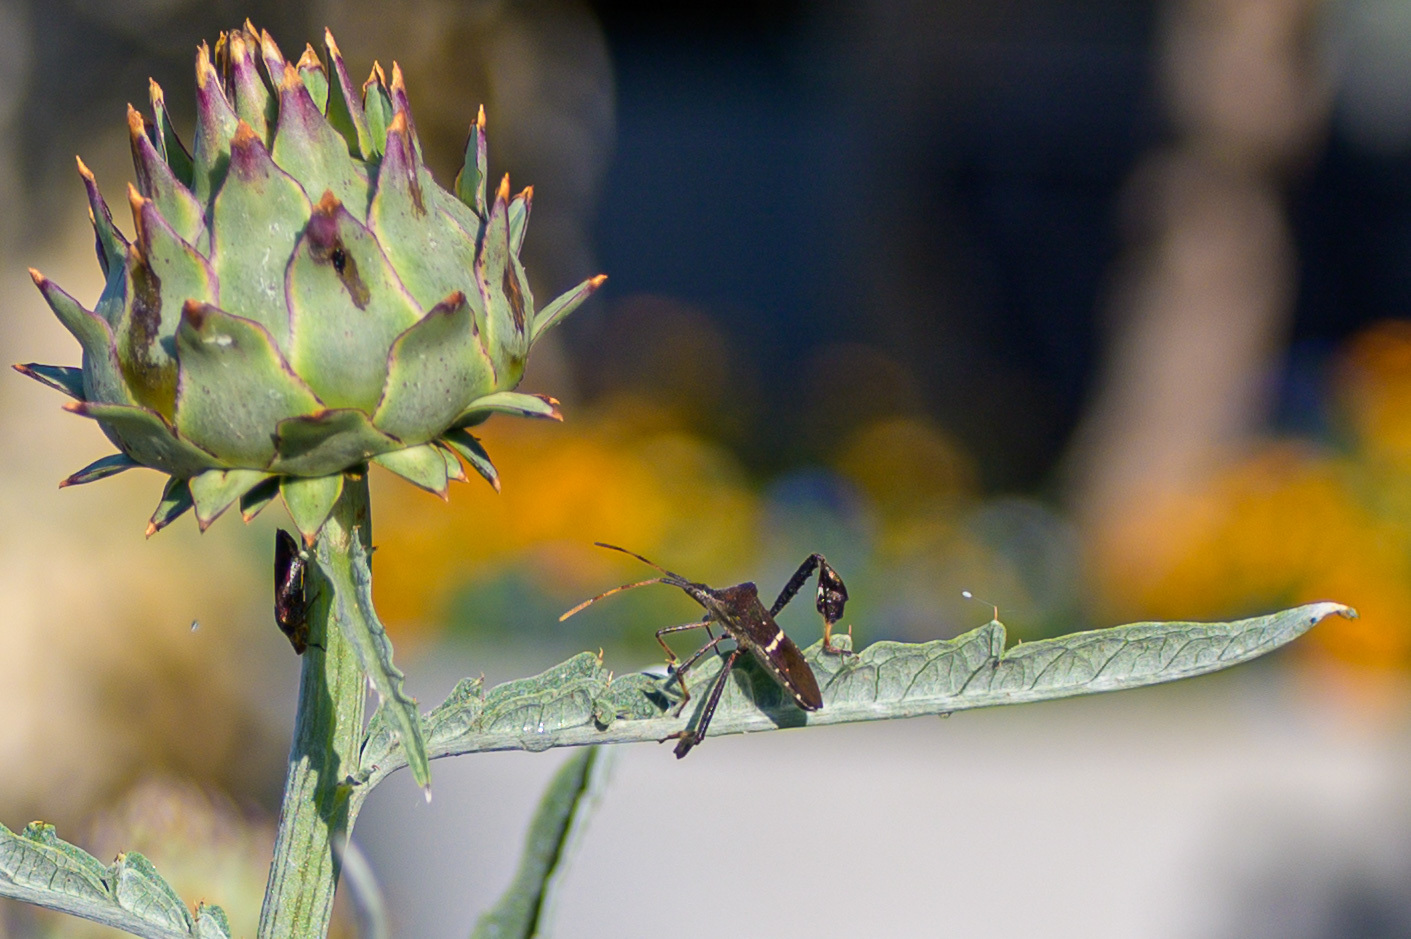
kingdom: Animalia
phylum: Arthropoda
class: Insecta
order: Hemiptera
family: Coreidae
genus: Leptoglossus
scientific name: Leptoglossus phyllopus
